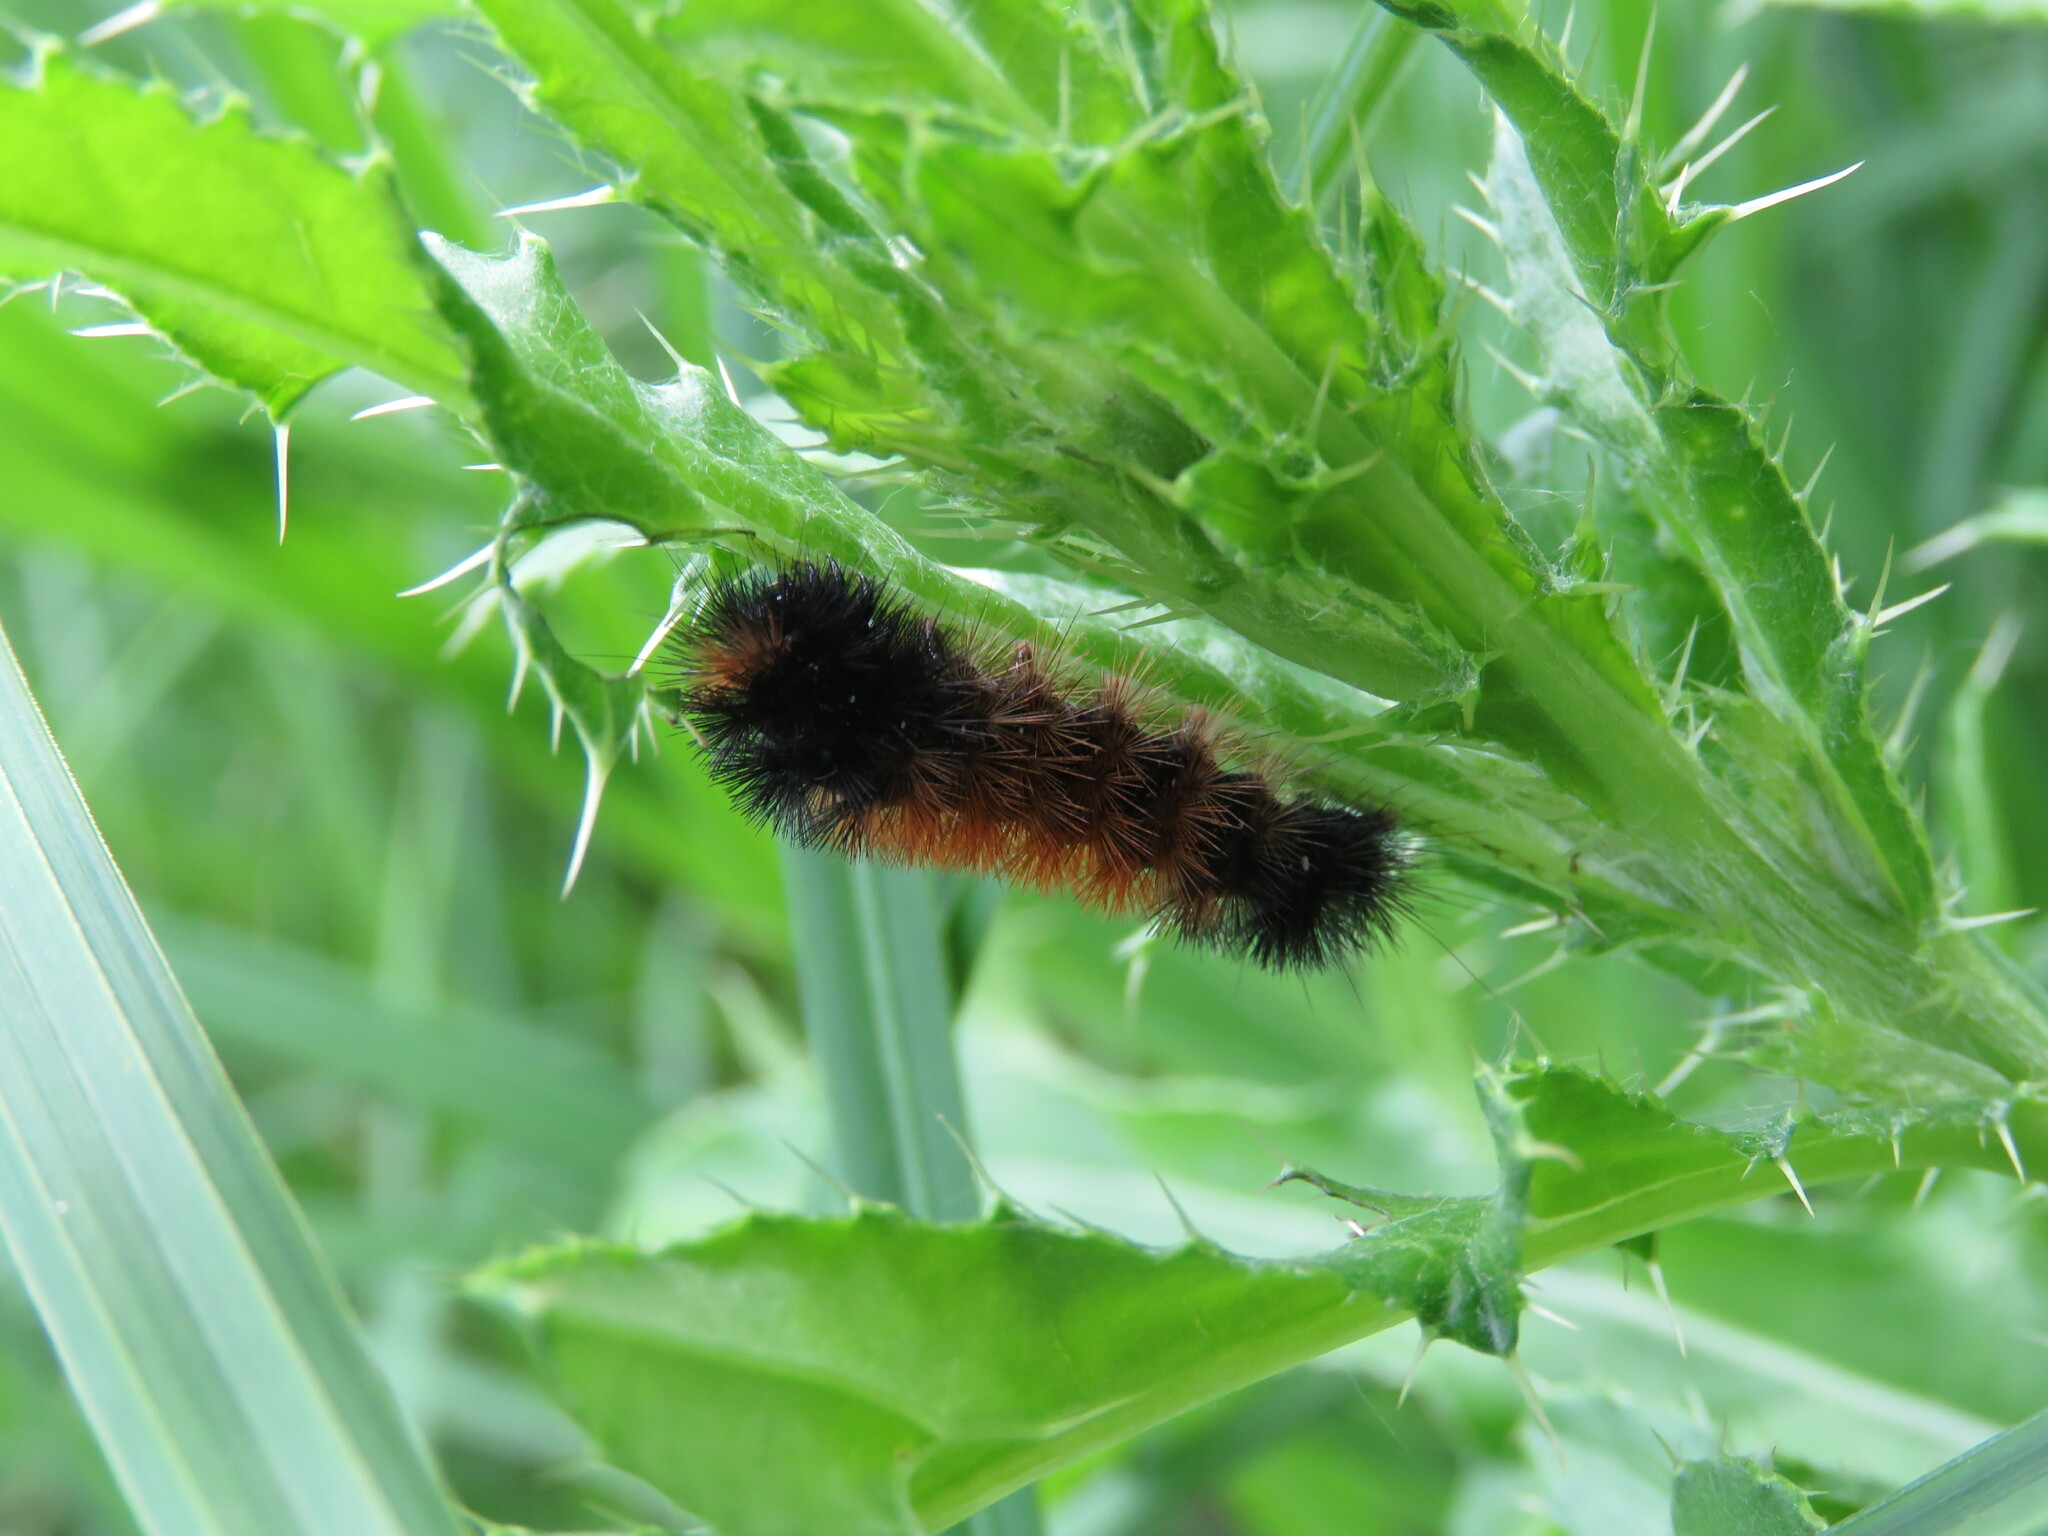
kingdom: Animalia
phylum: Arthropoda
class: Insecta
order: Lepidoptera
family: Erebidae
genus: Pyrrharctia
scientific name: Pyrrharctia isabella
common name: Isabella tiger moth
